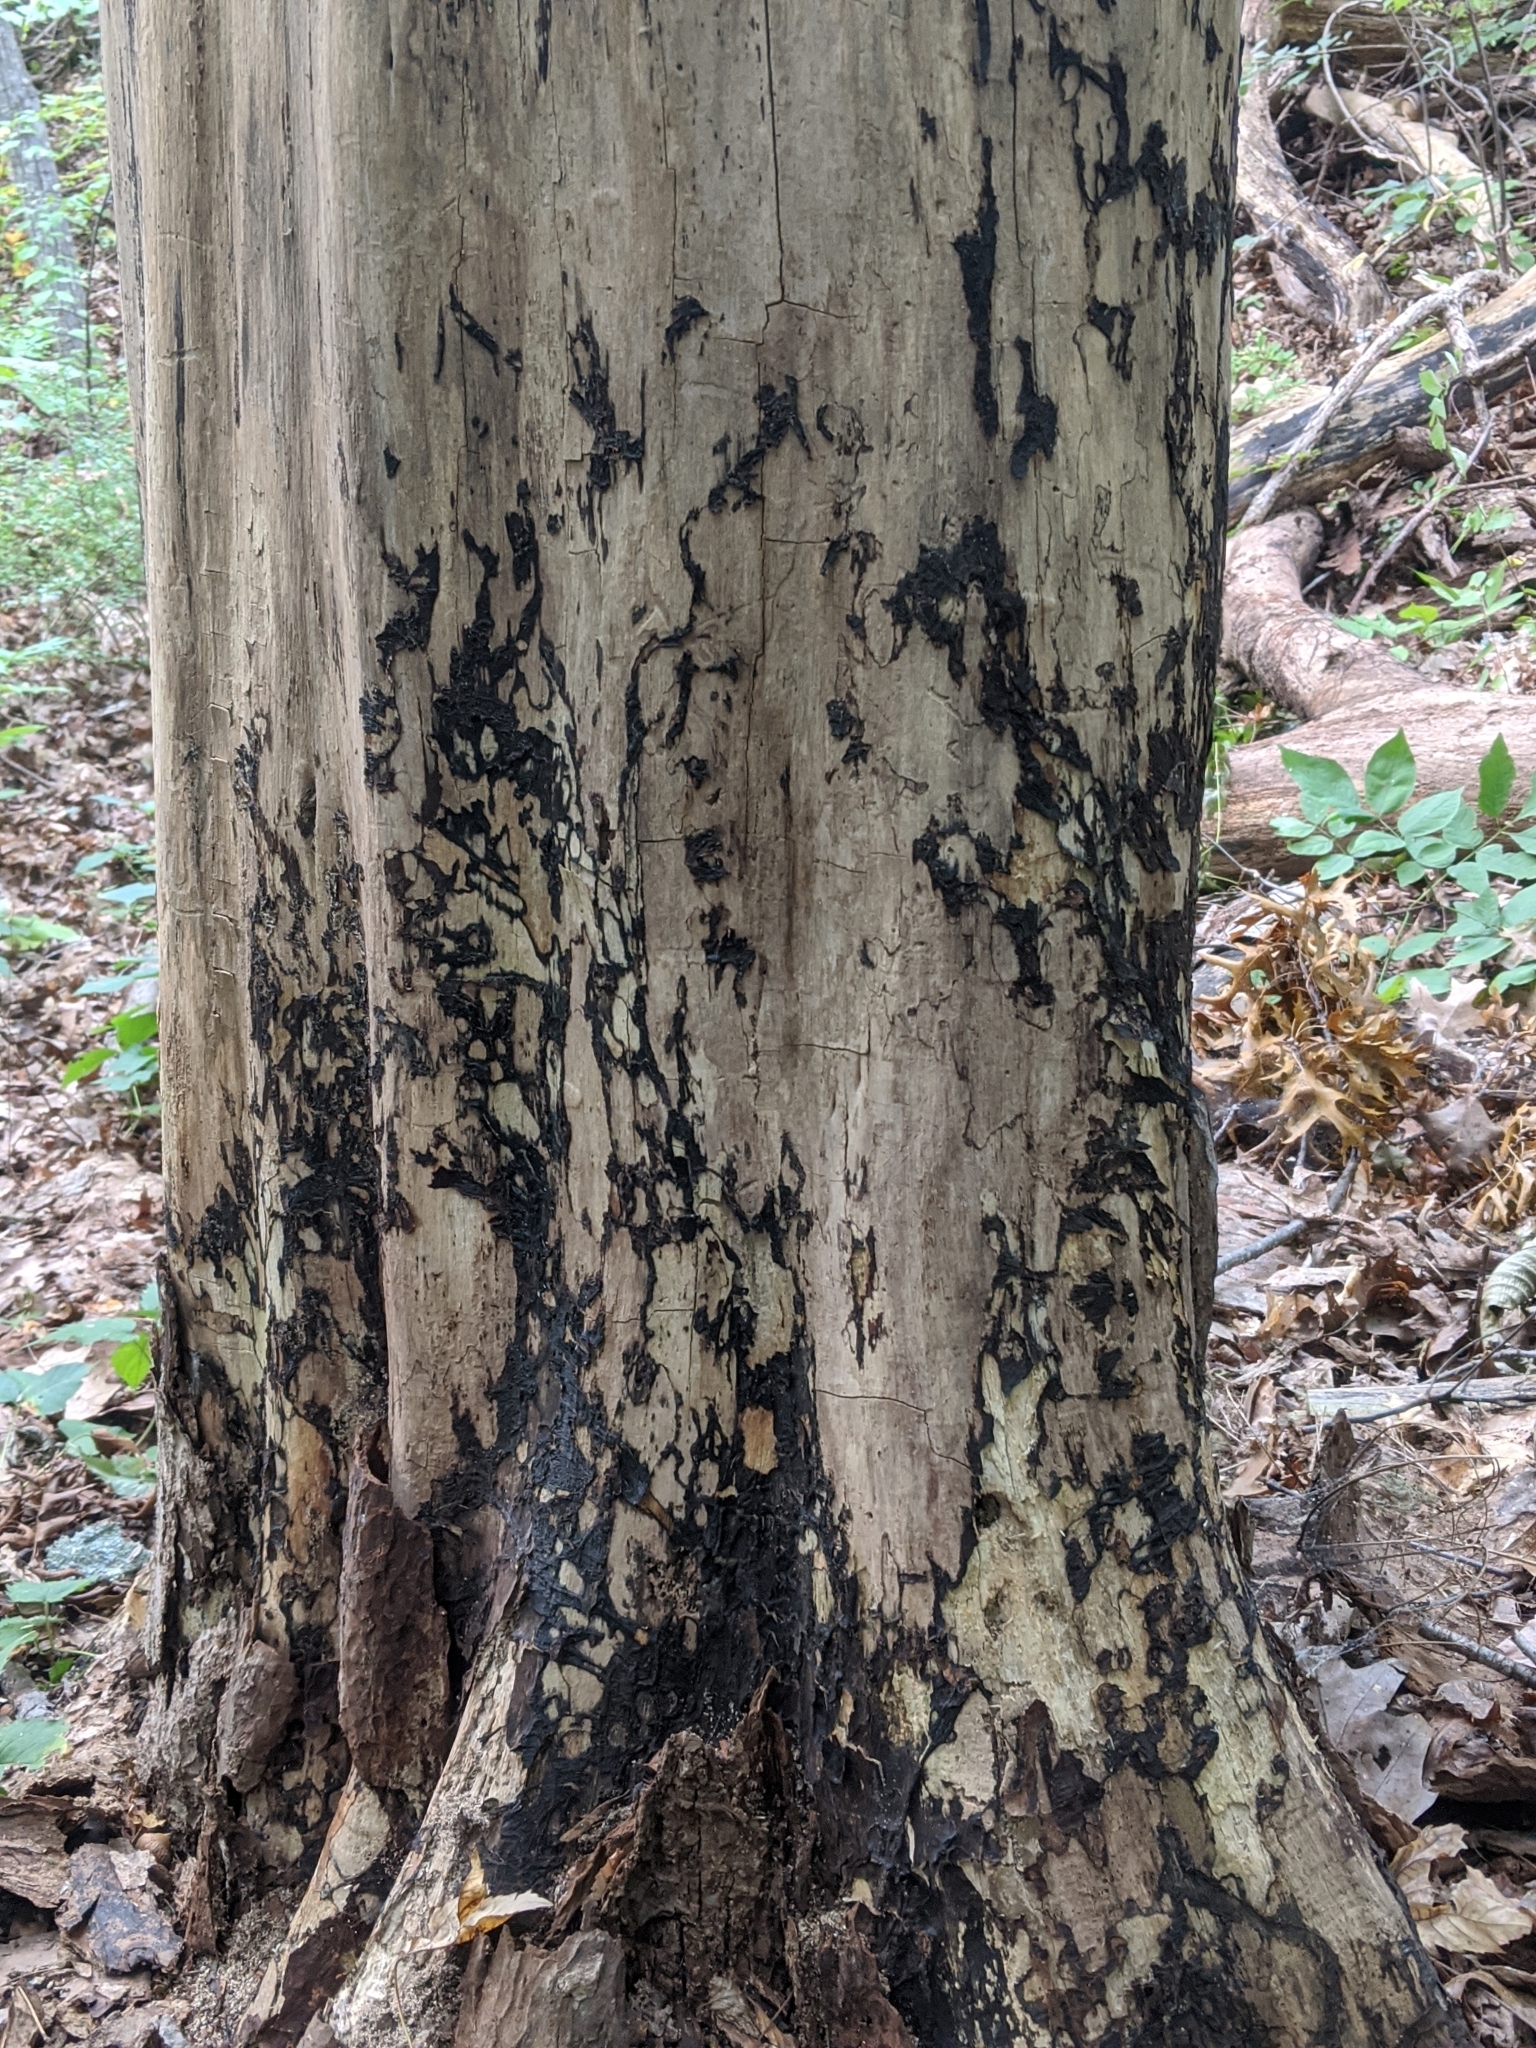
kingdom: Fungi
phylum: Basidiomycota
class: Agaricomycetes
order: Auriculariales
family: Auriculariaceae
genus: Exidia
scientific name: Exidia glandulosa
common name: Witches' butter
